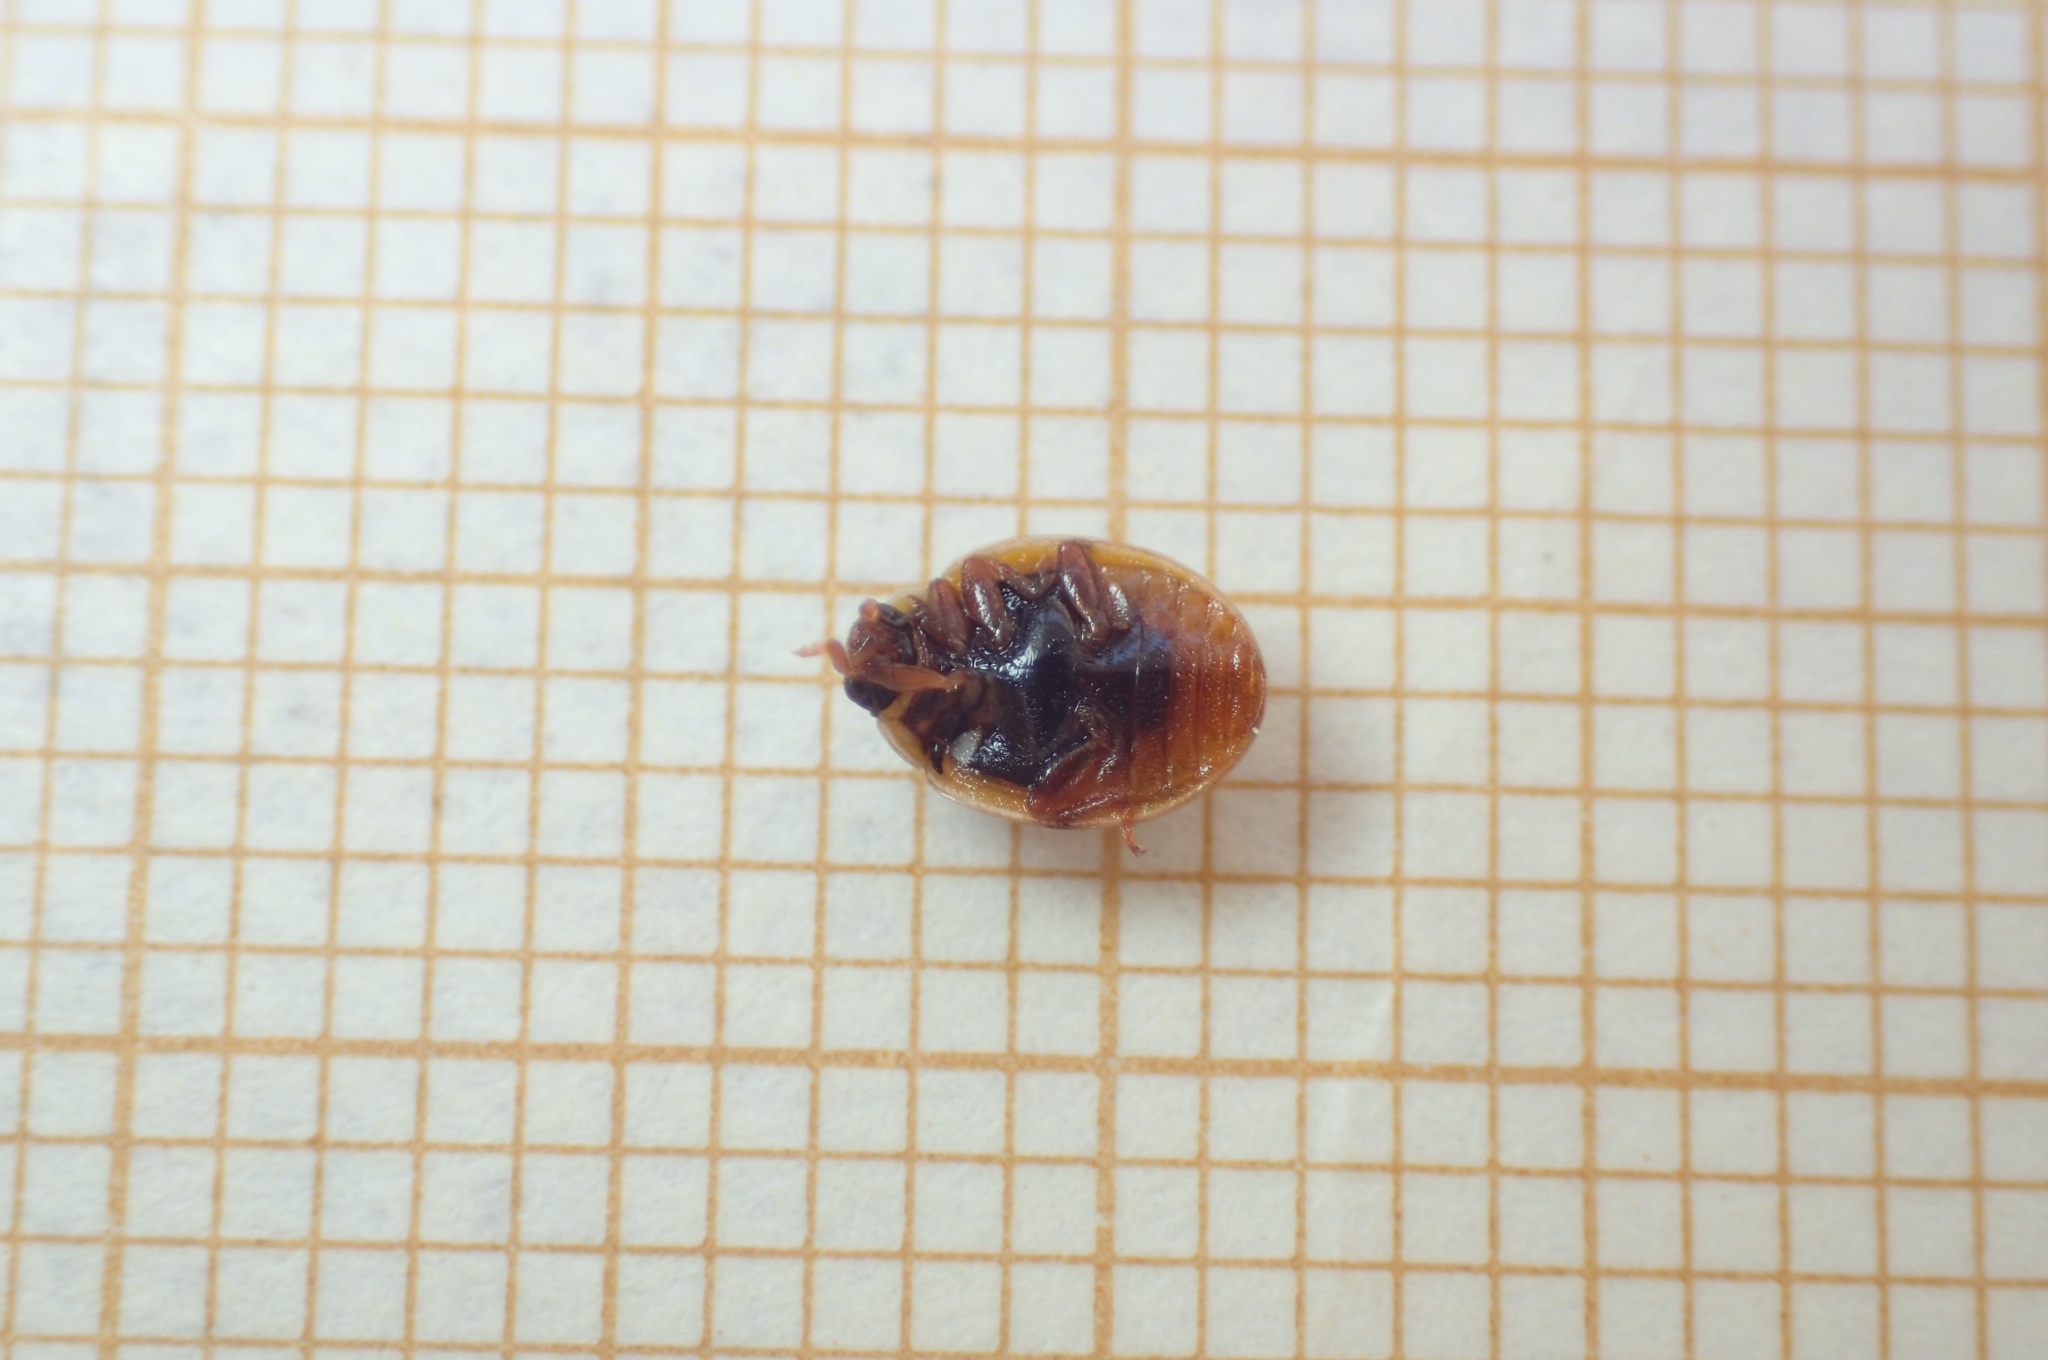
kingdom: Animalia
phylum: Arthropoda
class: Insecta
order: Coleoptera
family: Coccinellidae
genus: Adalia
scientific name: Adalia decempunctata
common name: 10-spot ladybird
